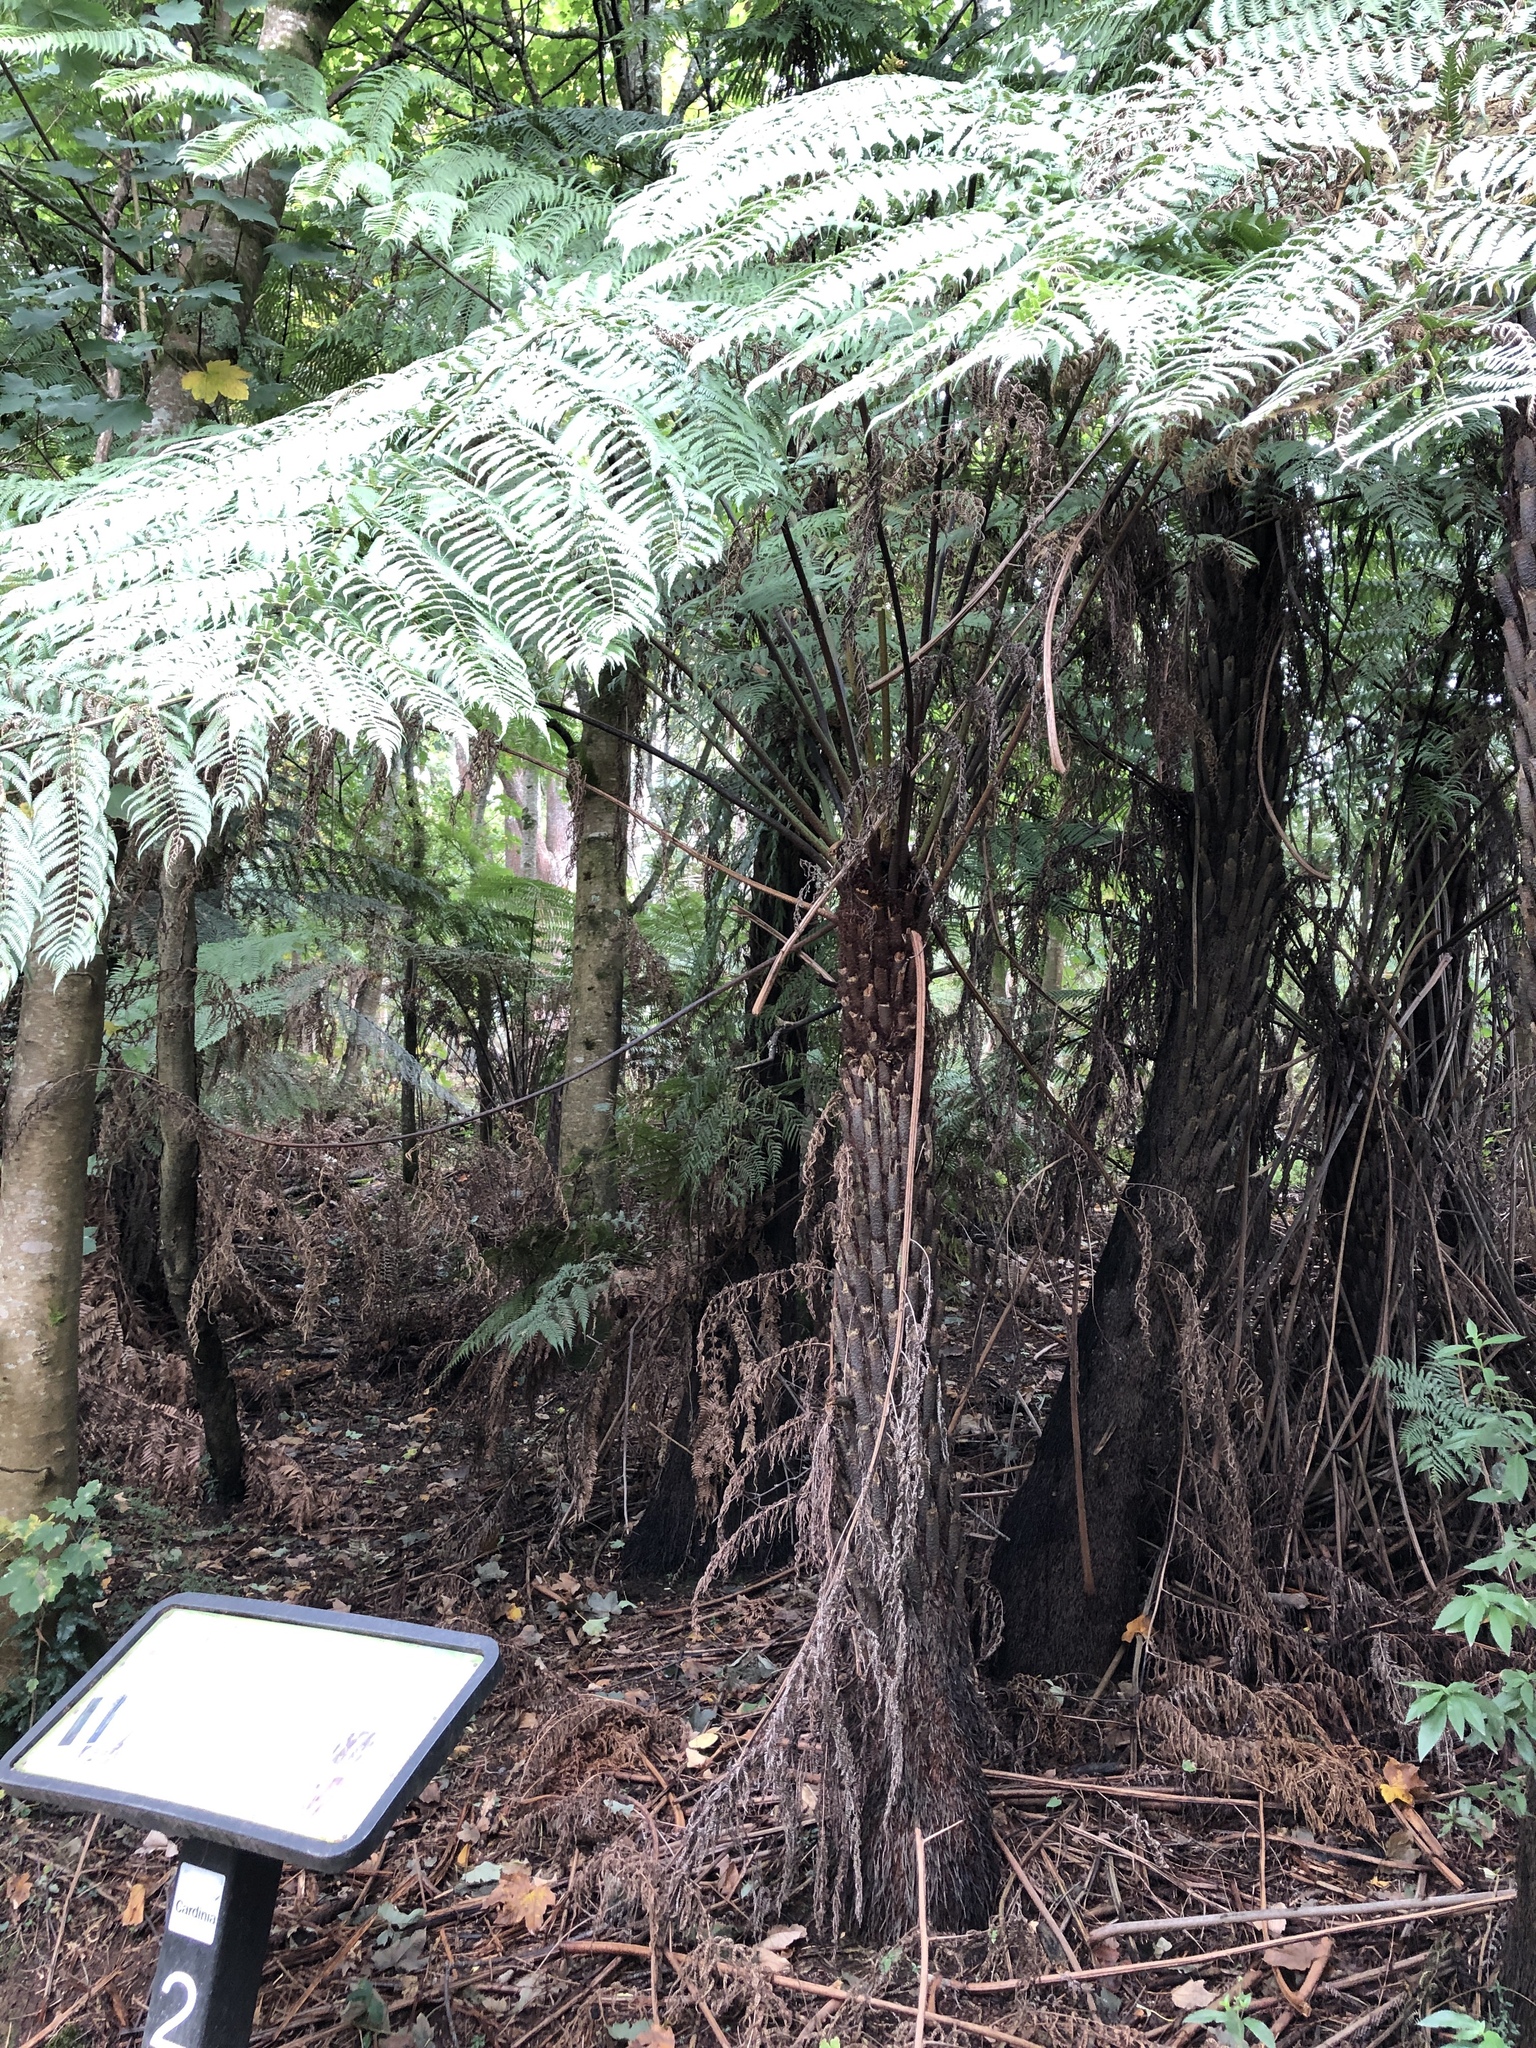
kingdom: Plantae
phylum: Tracheophyta
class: Polypodiopsida
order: Cyatheales
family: Cyatheaceae
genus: Alsophila
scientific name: Alsophila australis
